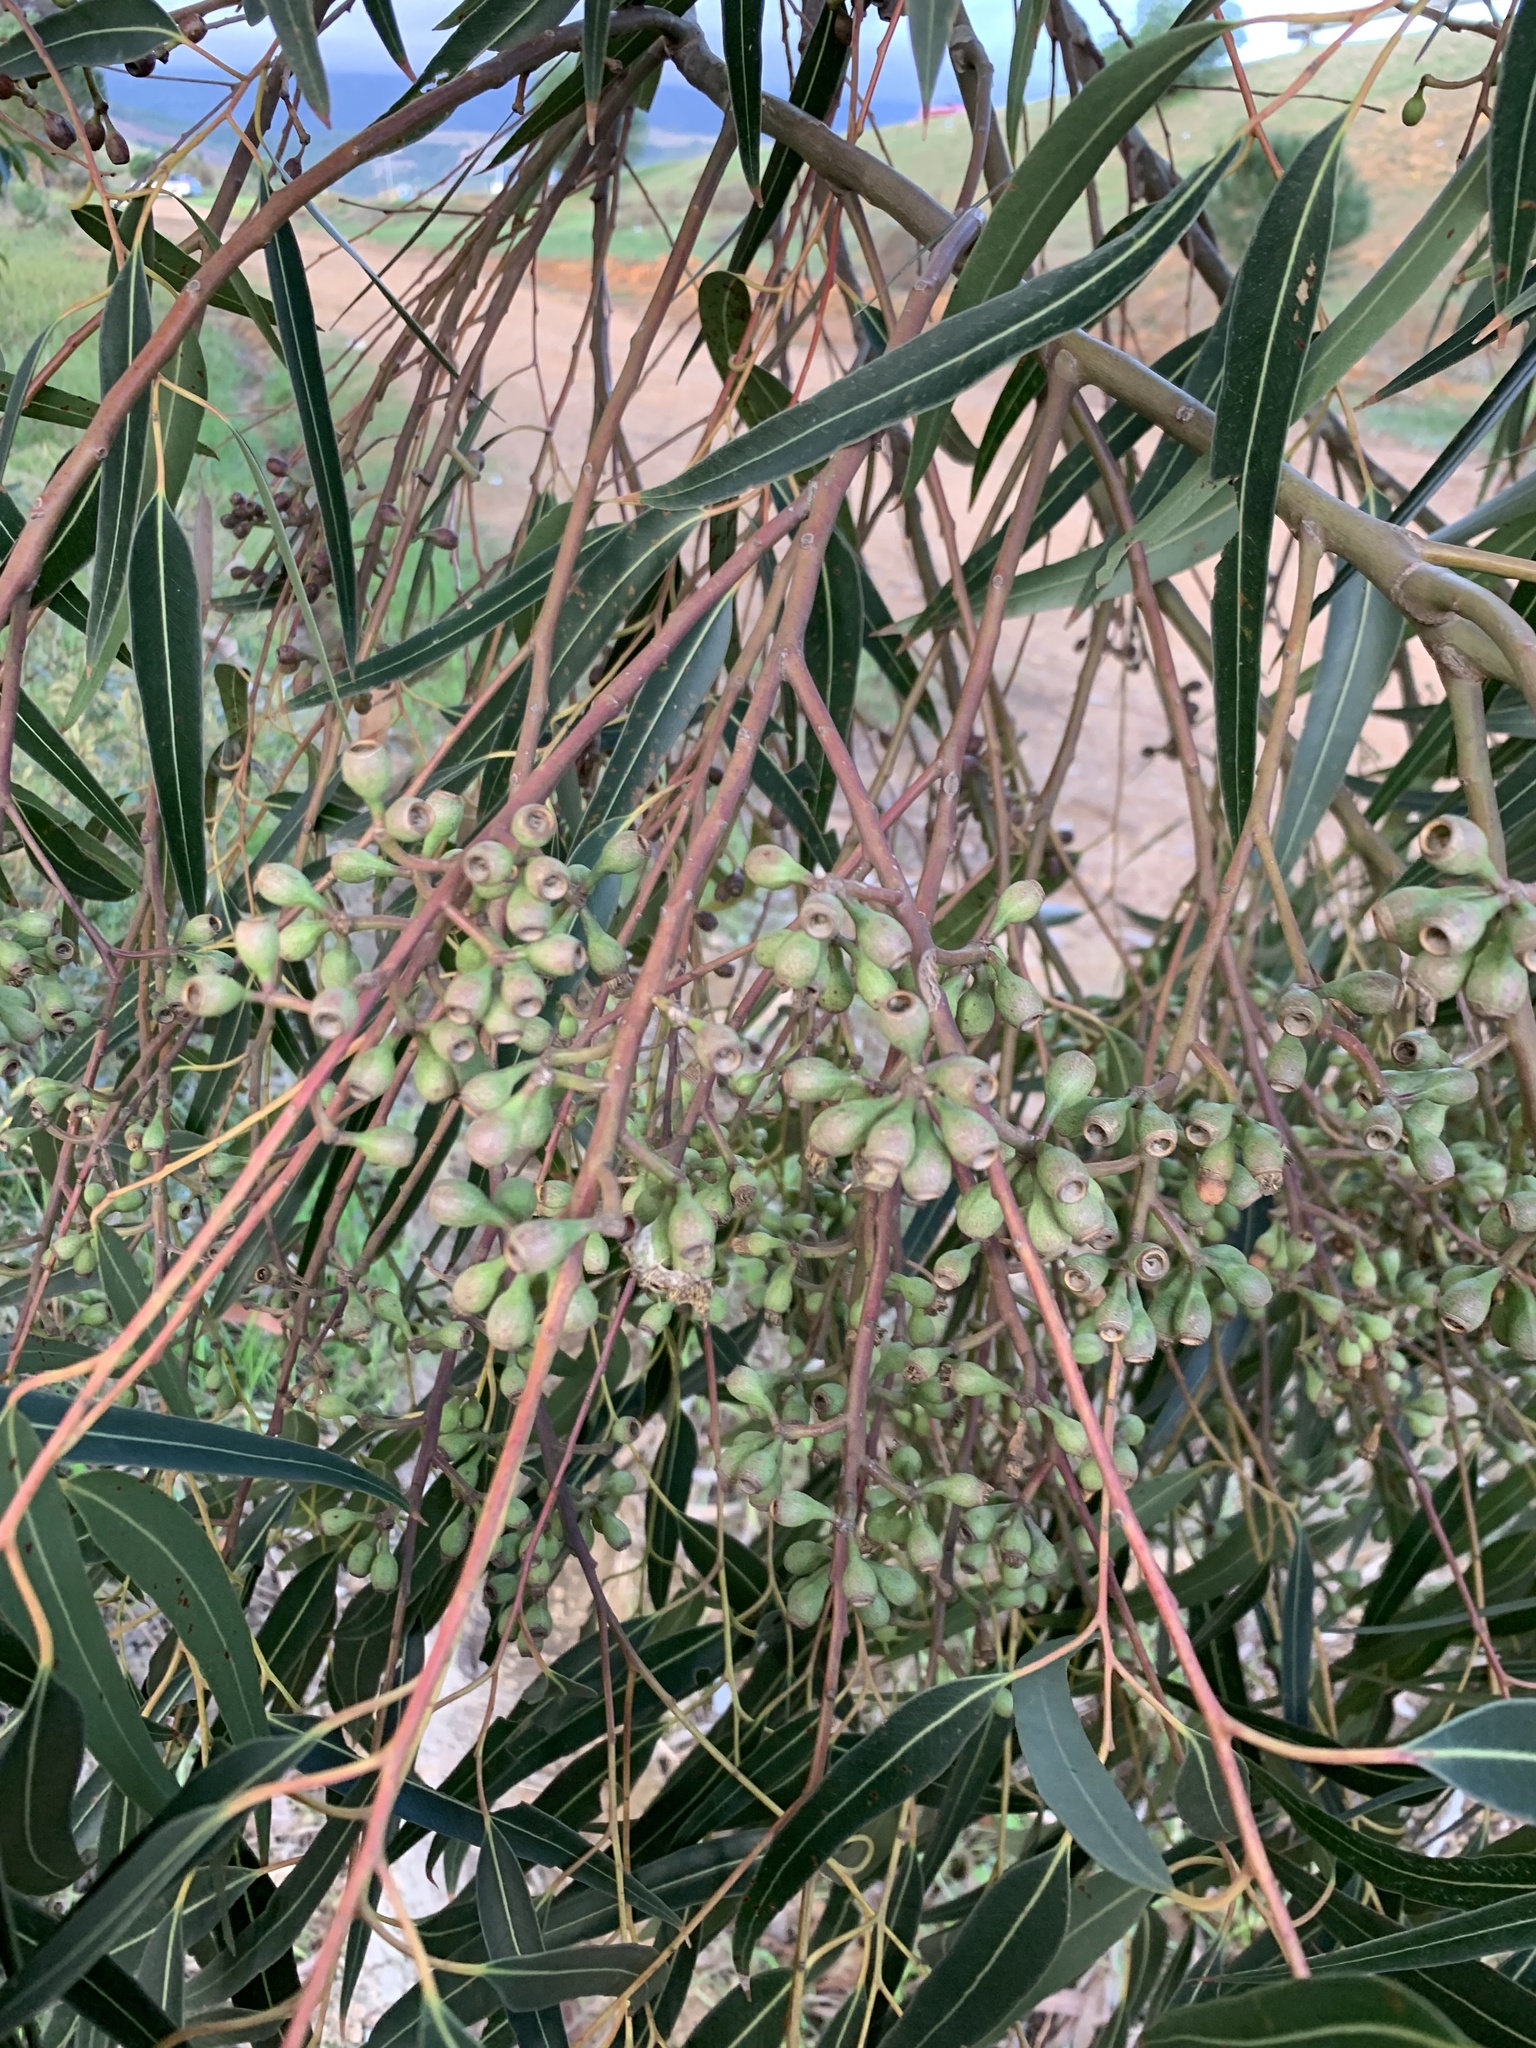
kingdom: Plantae
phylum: Tracheophyta
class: Magnoliopsida
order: Myrtales
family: Myrtaceae
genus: Eucalyptus
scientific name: Eucalyptus cladocalyx
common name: Sugargum
